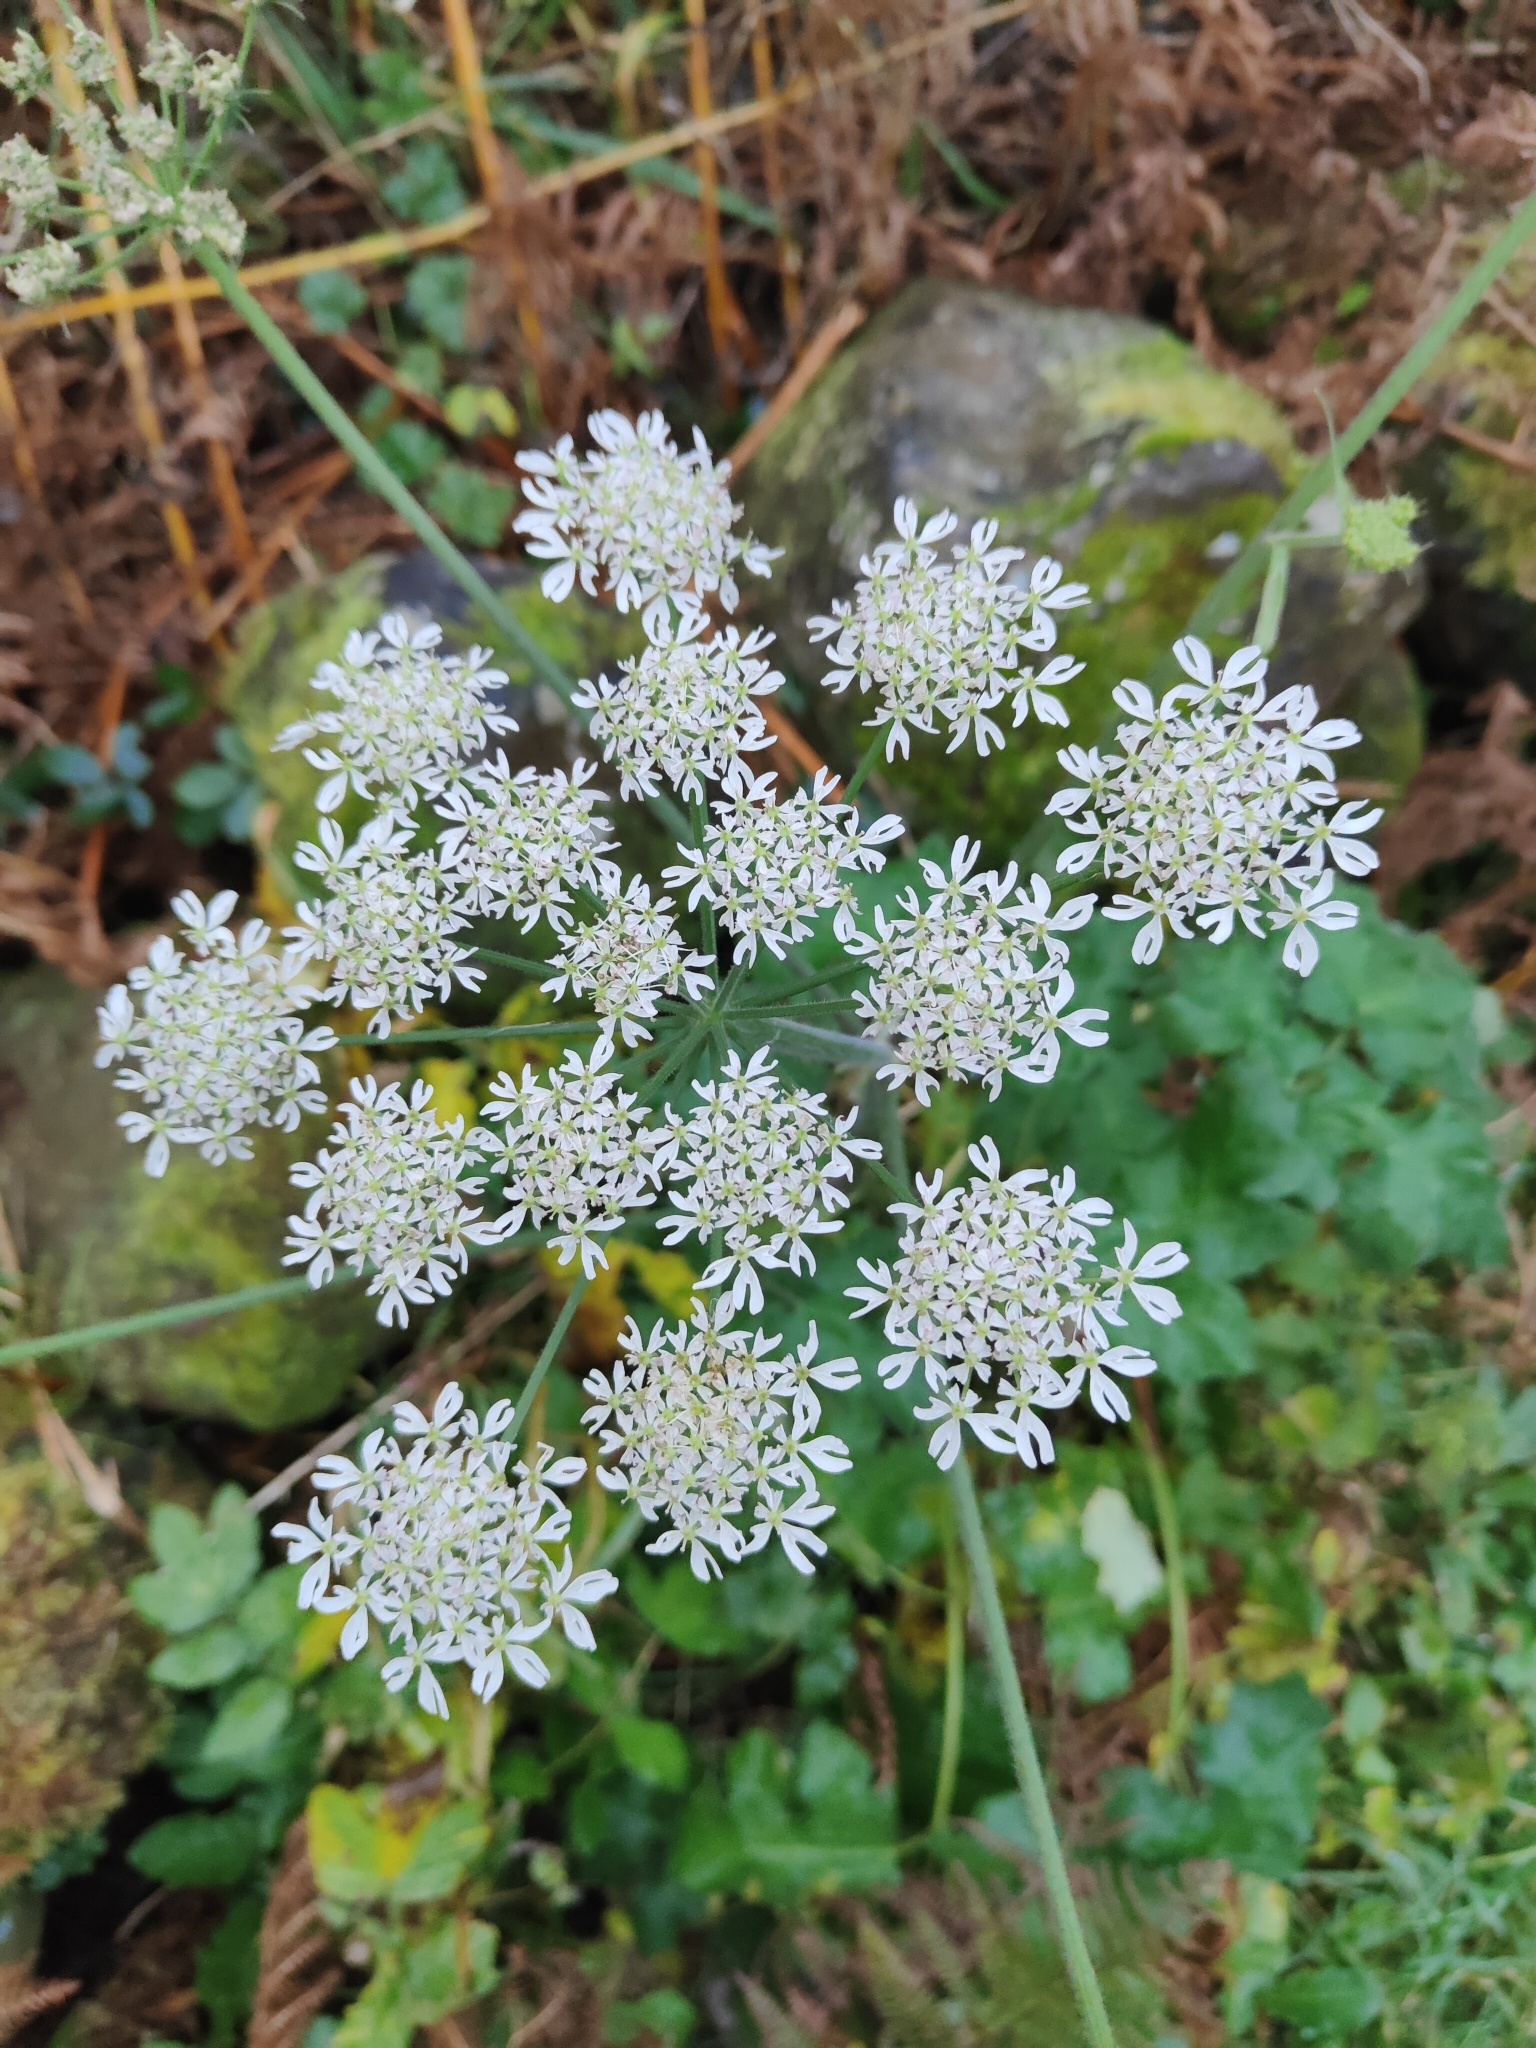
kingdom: Plantae
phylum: Tracheophyta
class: Magnoliopsida
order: Apiales
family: Apiaceae
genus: Heracleum
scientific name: Heracleum sphondylium
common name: Hogweed
